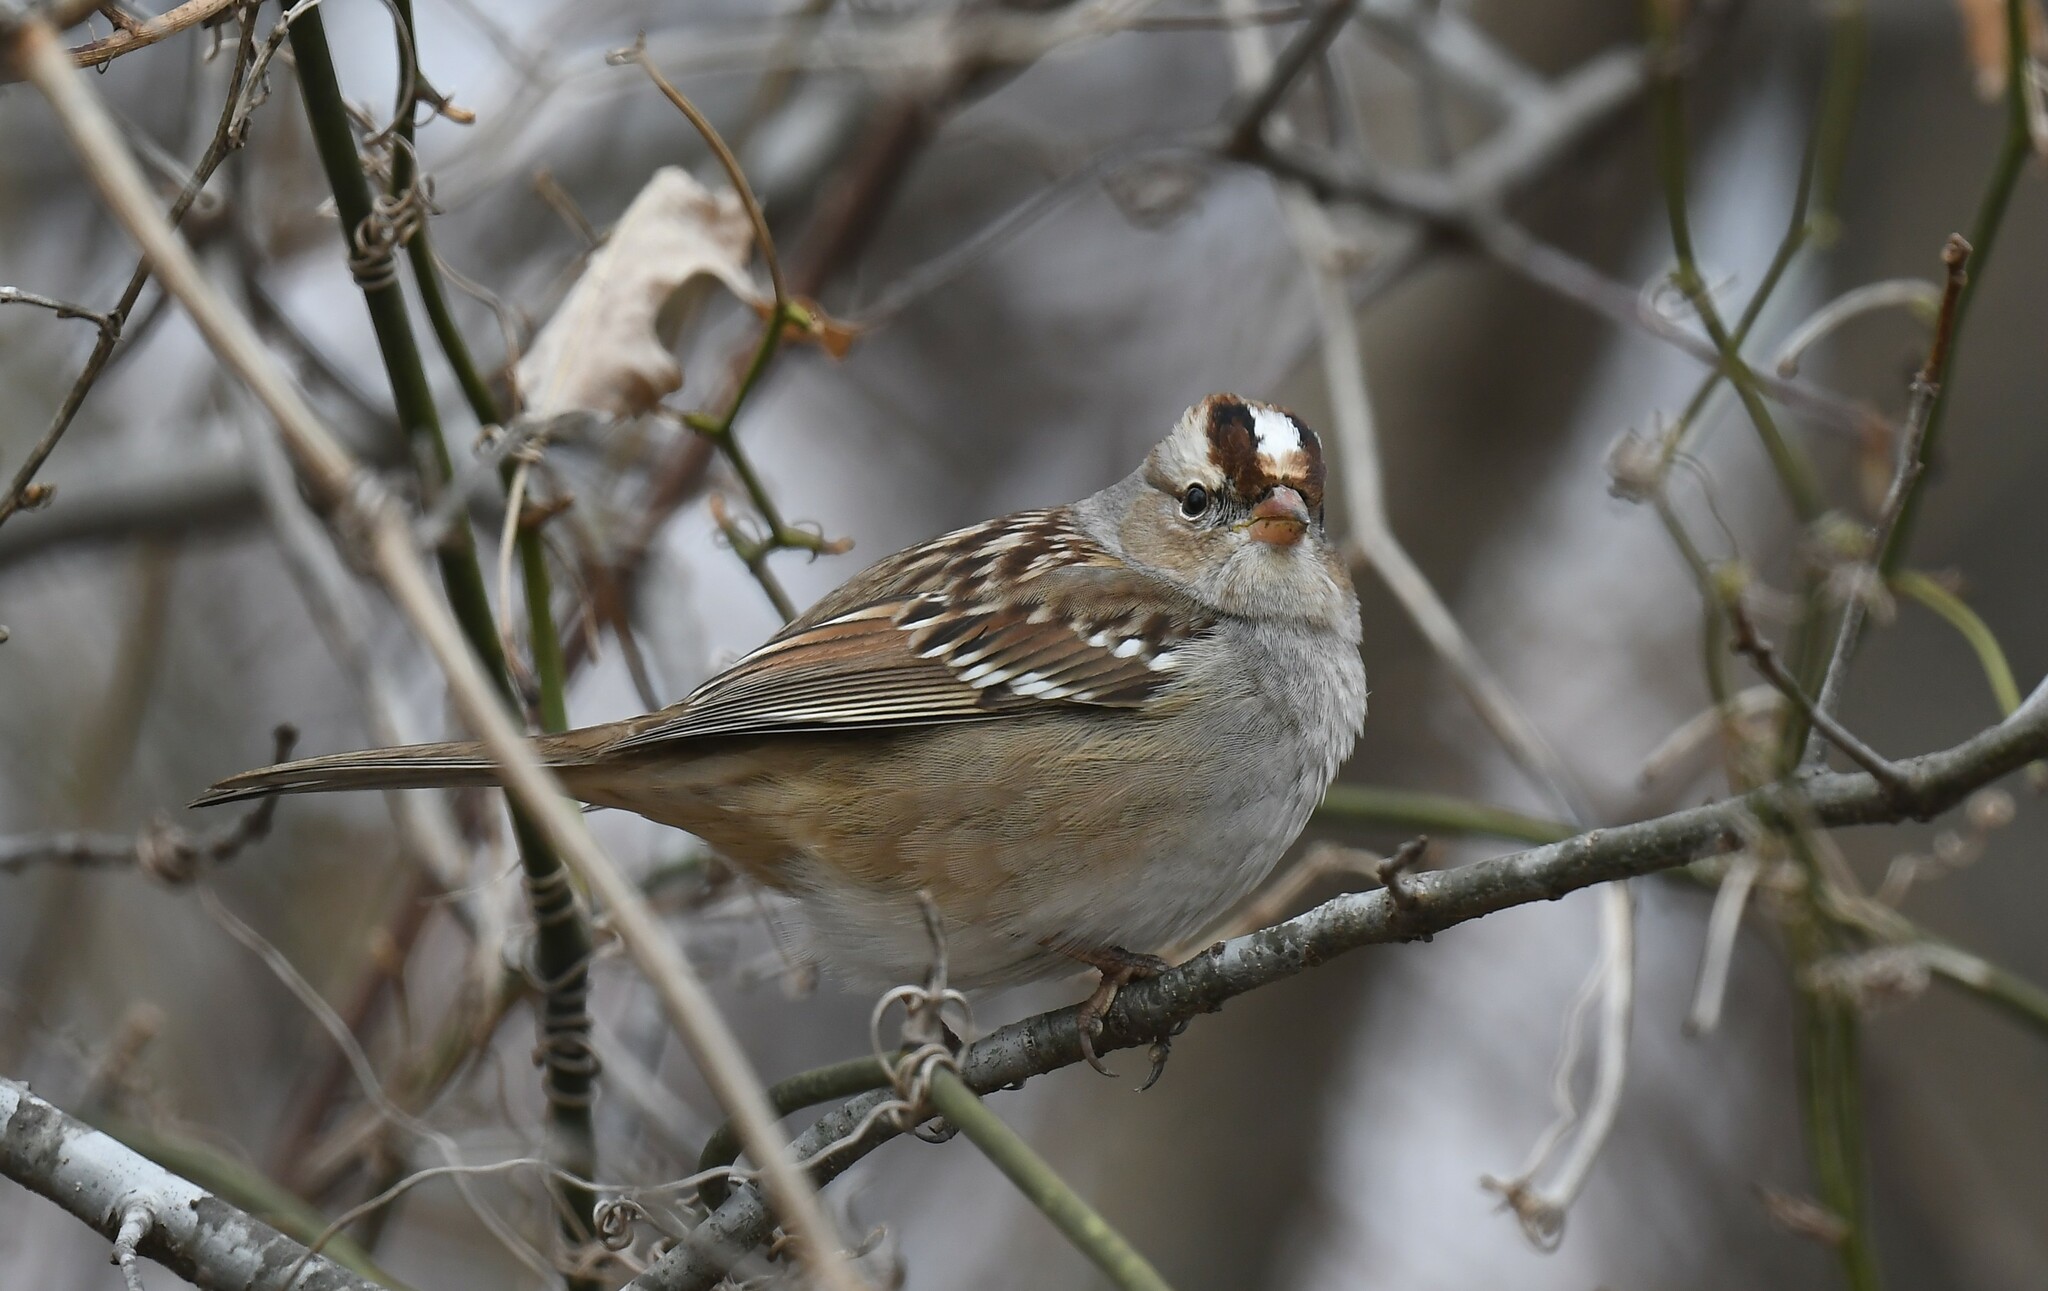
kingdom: Animalia
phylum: Chordata
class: Aves
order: Passeriformes
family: Passerellidae
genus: Zonotrichia
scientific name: Zonotrichia leucophrys
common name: White-crowned sparrow
